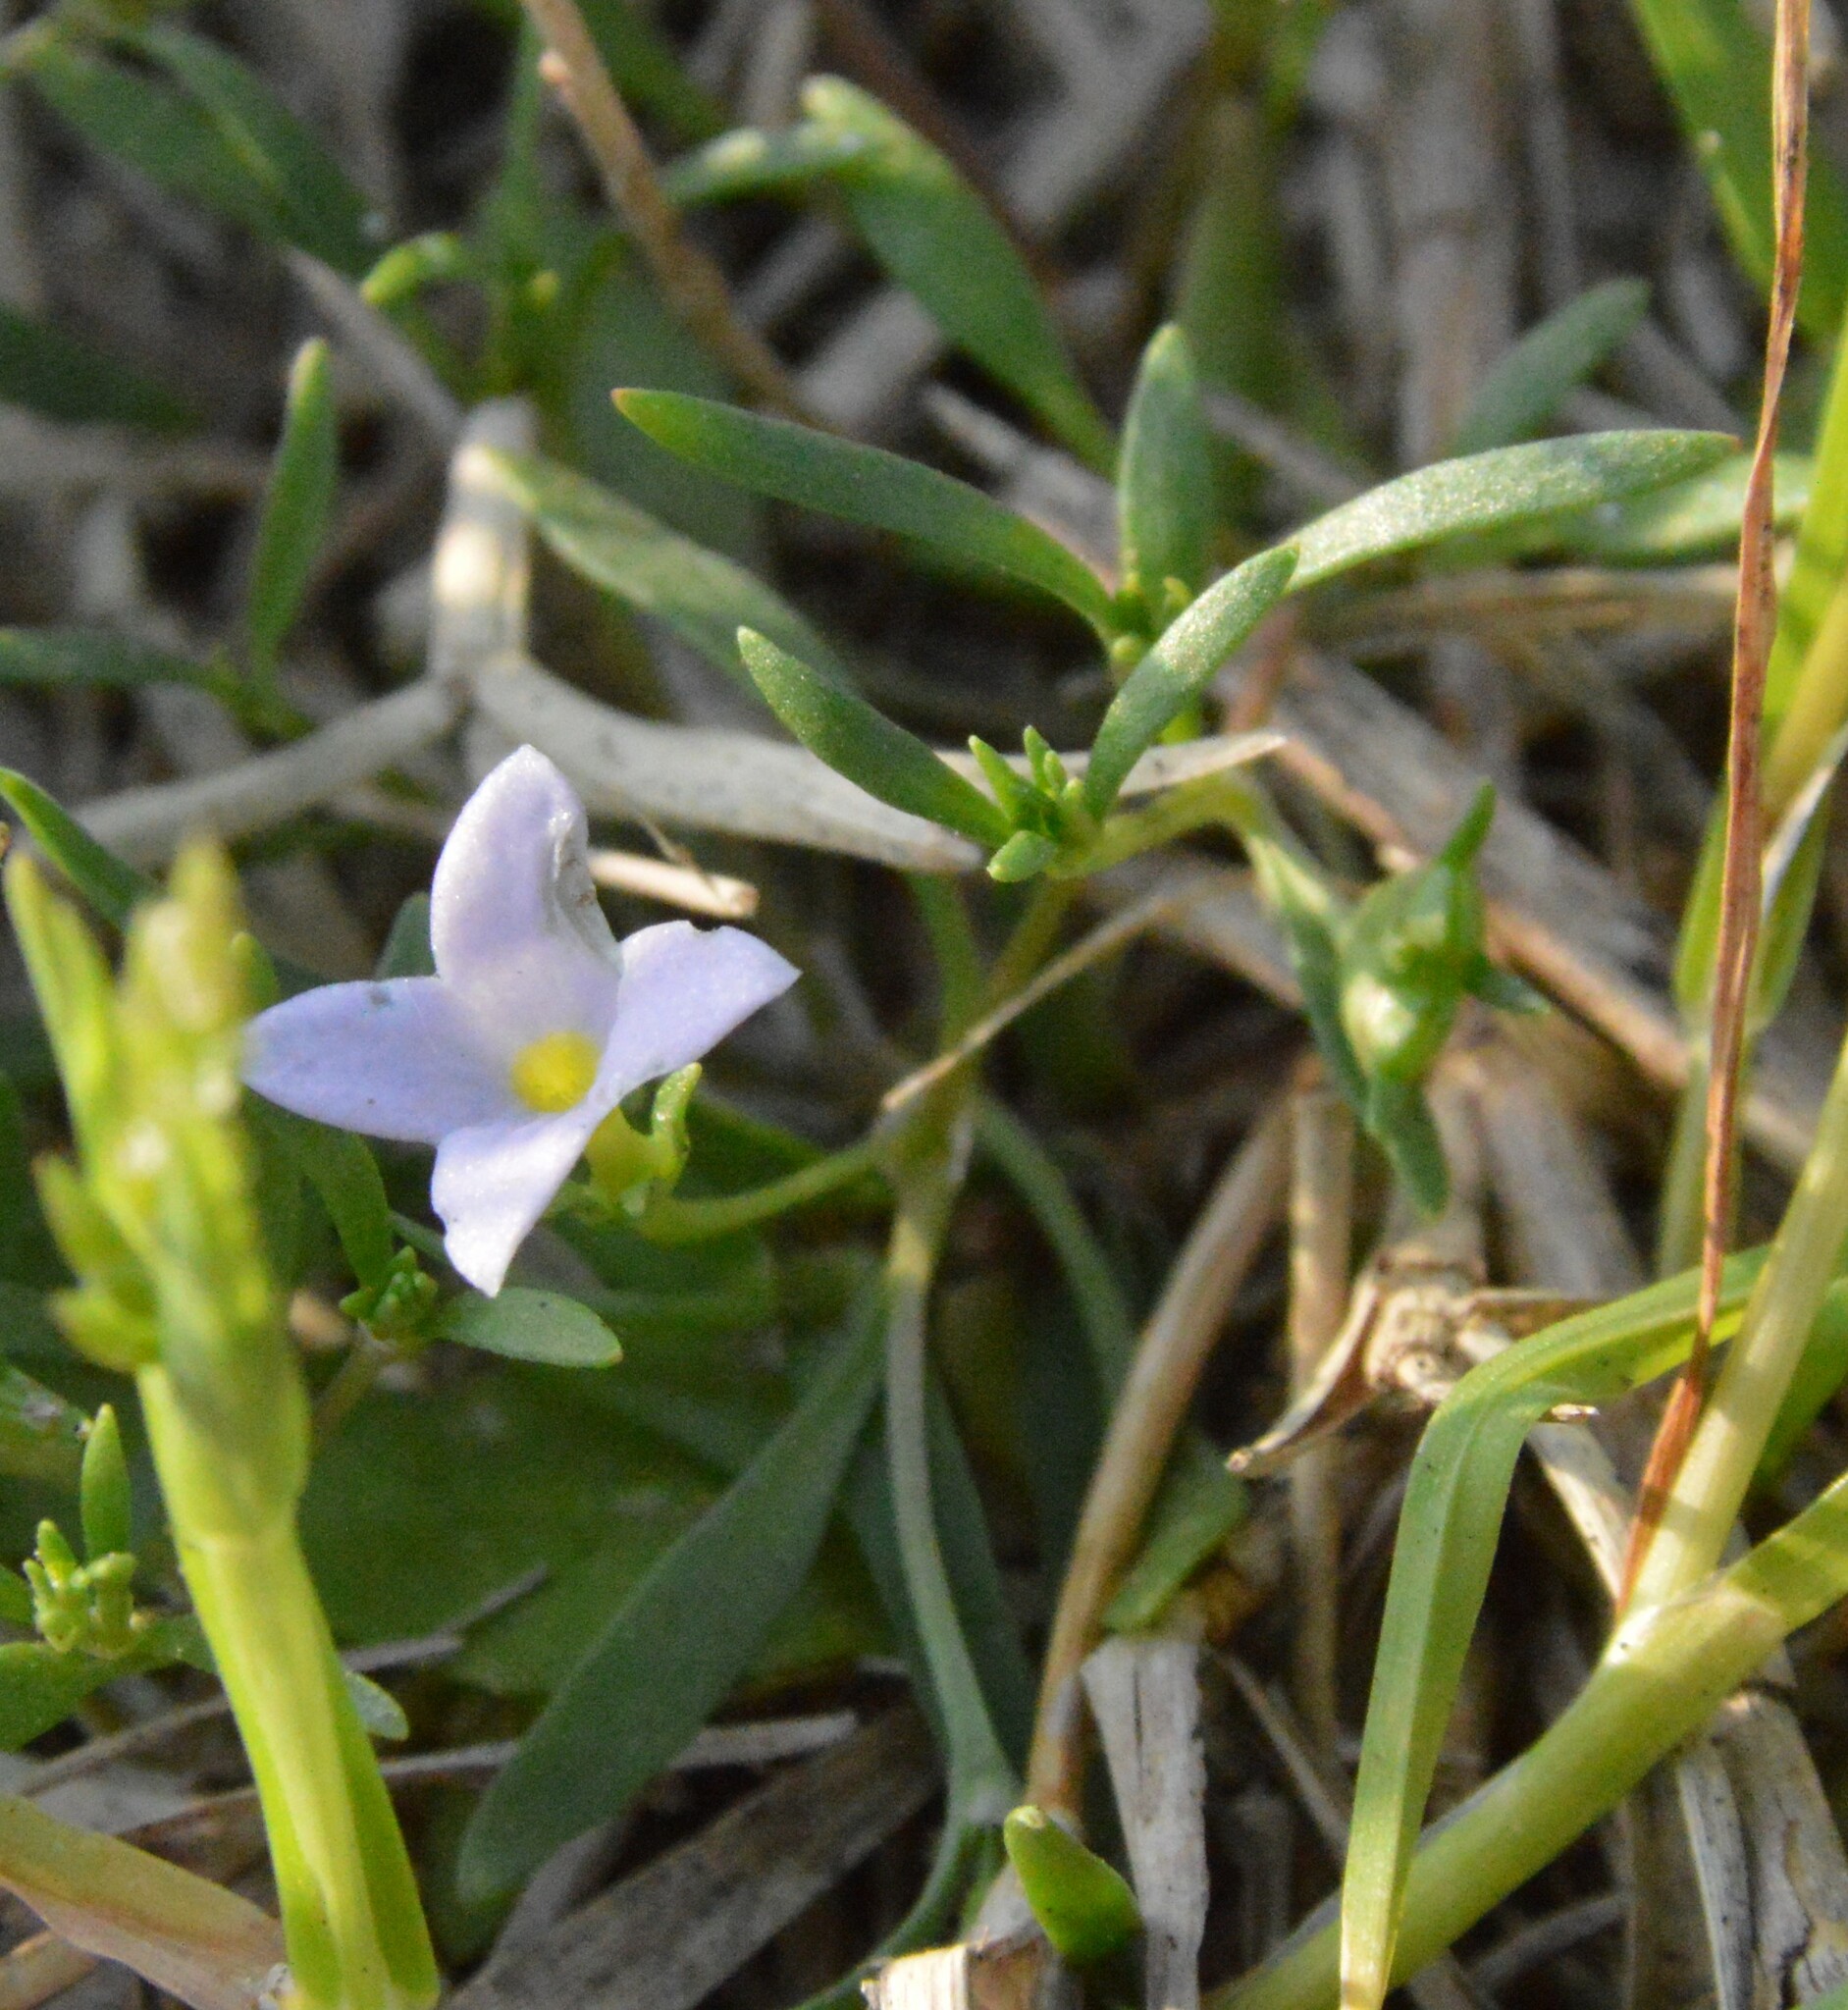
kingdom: Plantae
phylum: Tracheophyta
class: Magnoliopsida
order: Gentianales
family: Rubiaceae
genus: Houstonia
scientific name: Houstonia rosea
